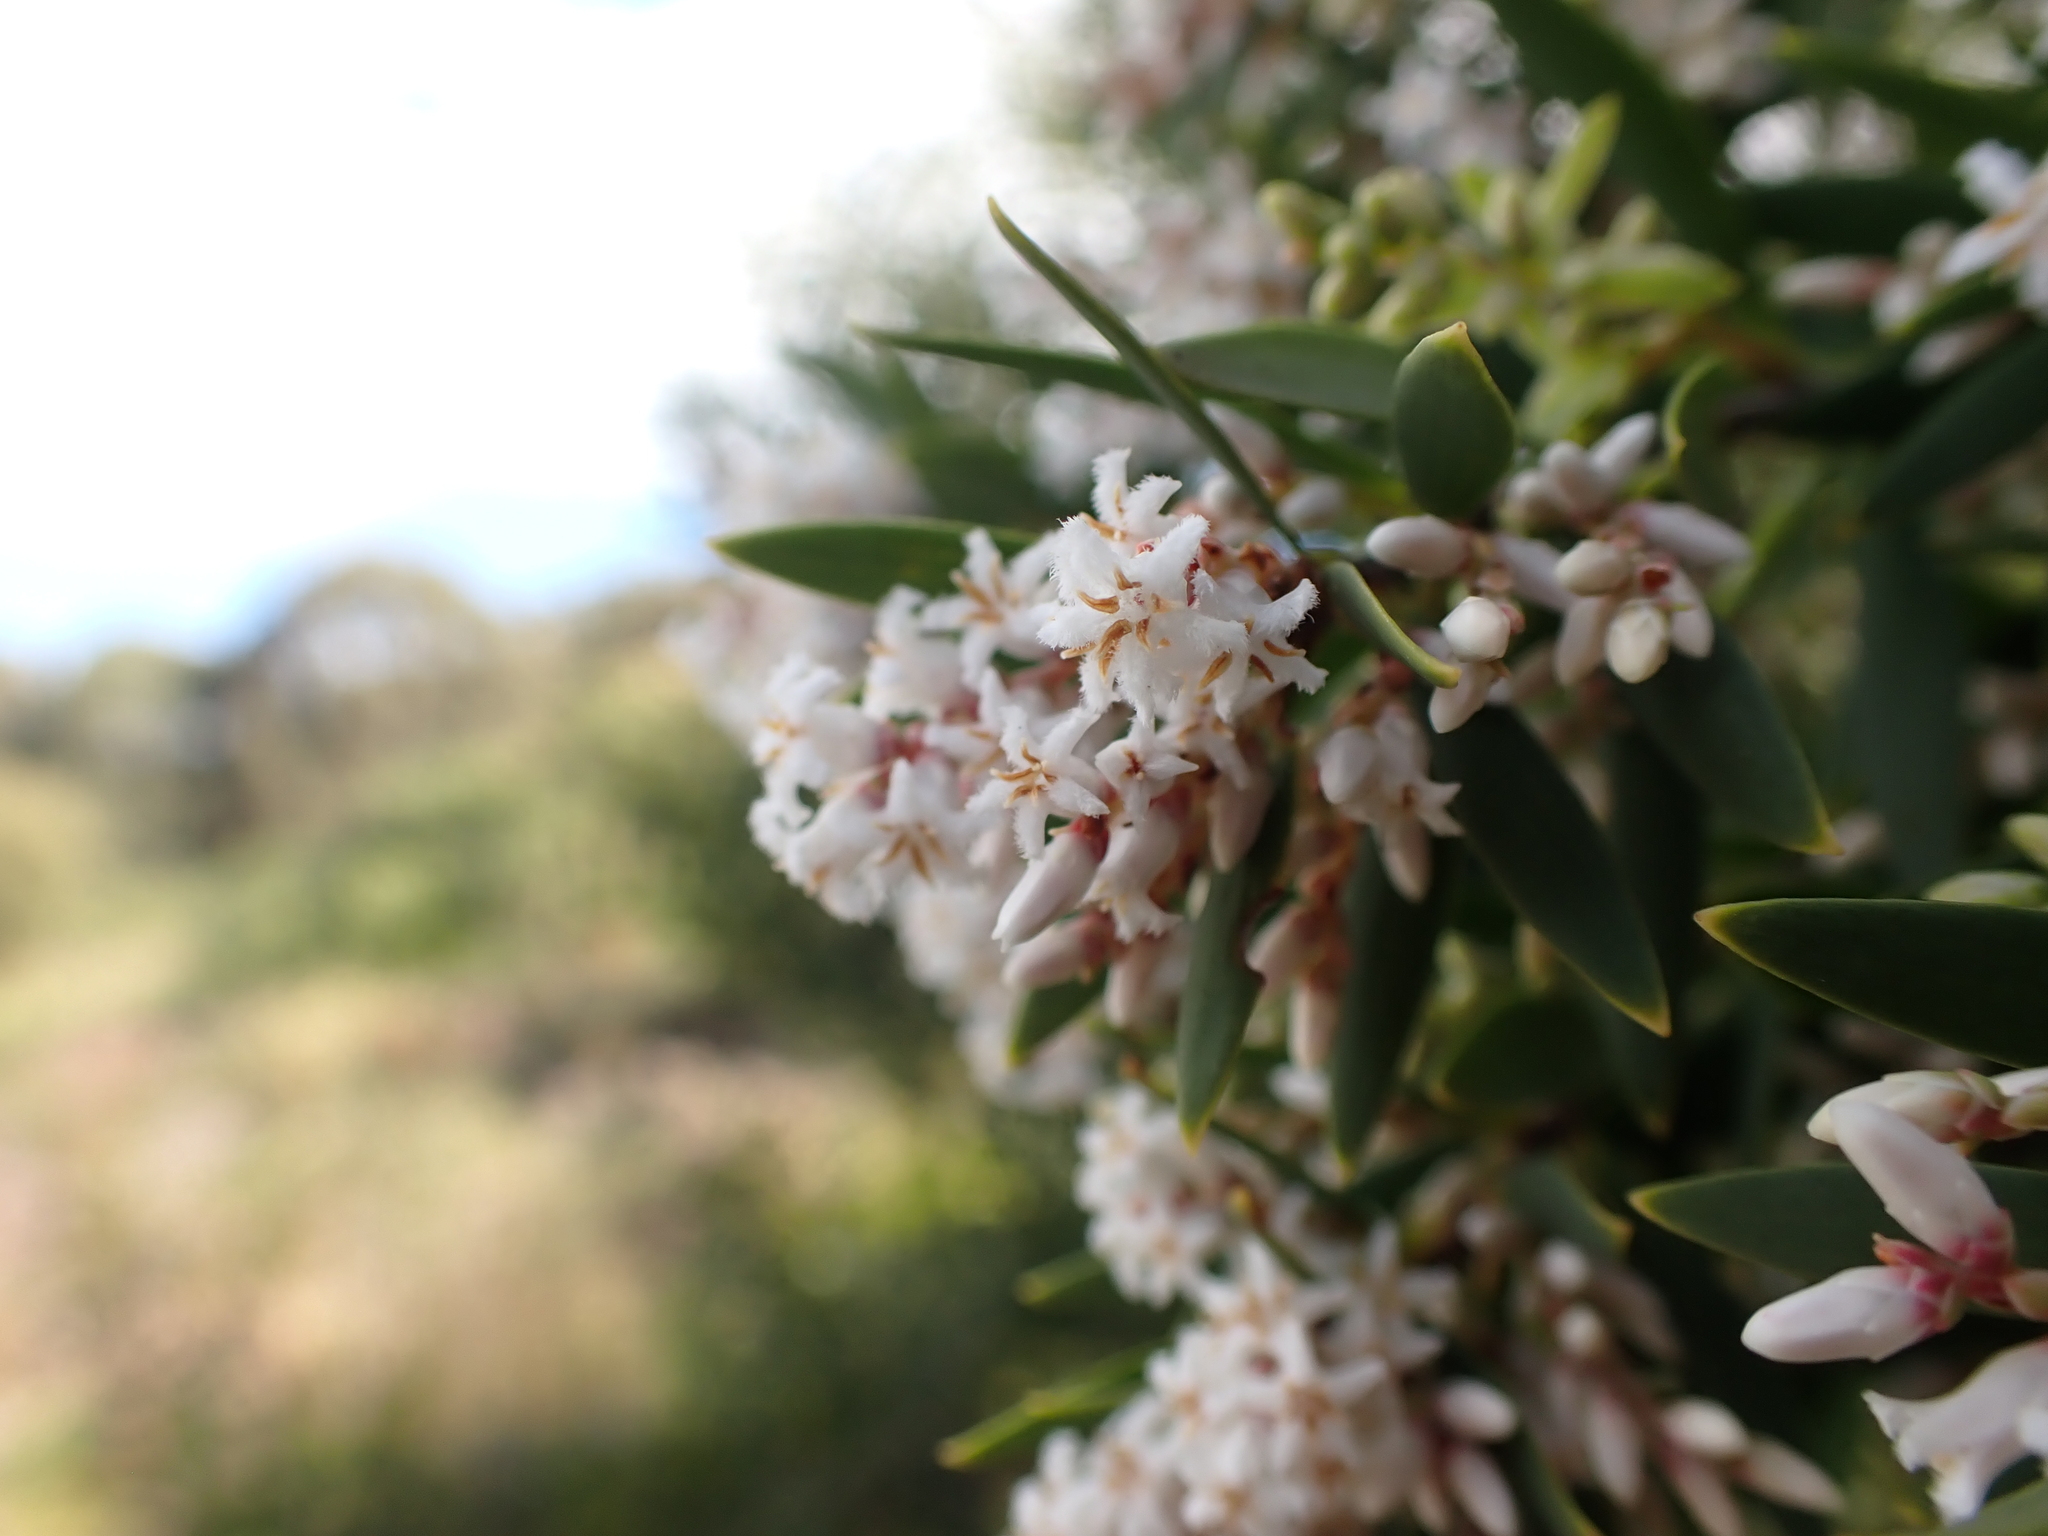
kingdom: Plantae
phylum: Tracheophyta
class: Magnoliopsida
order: Ericales
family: Ericaceae
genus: Leptecophylla
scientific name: Leptecophylla parvifolia
